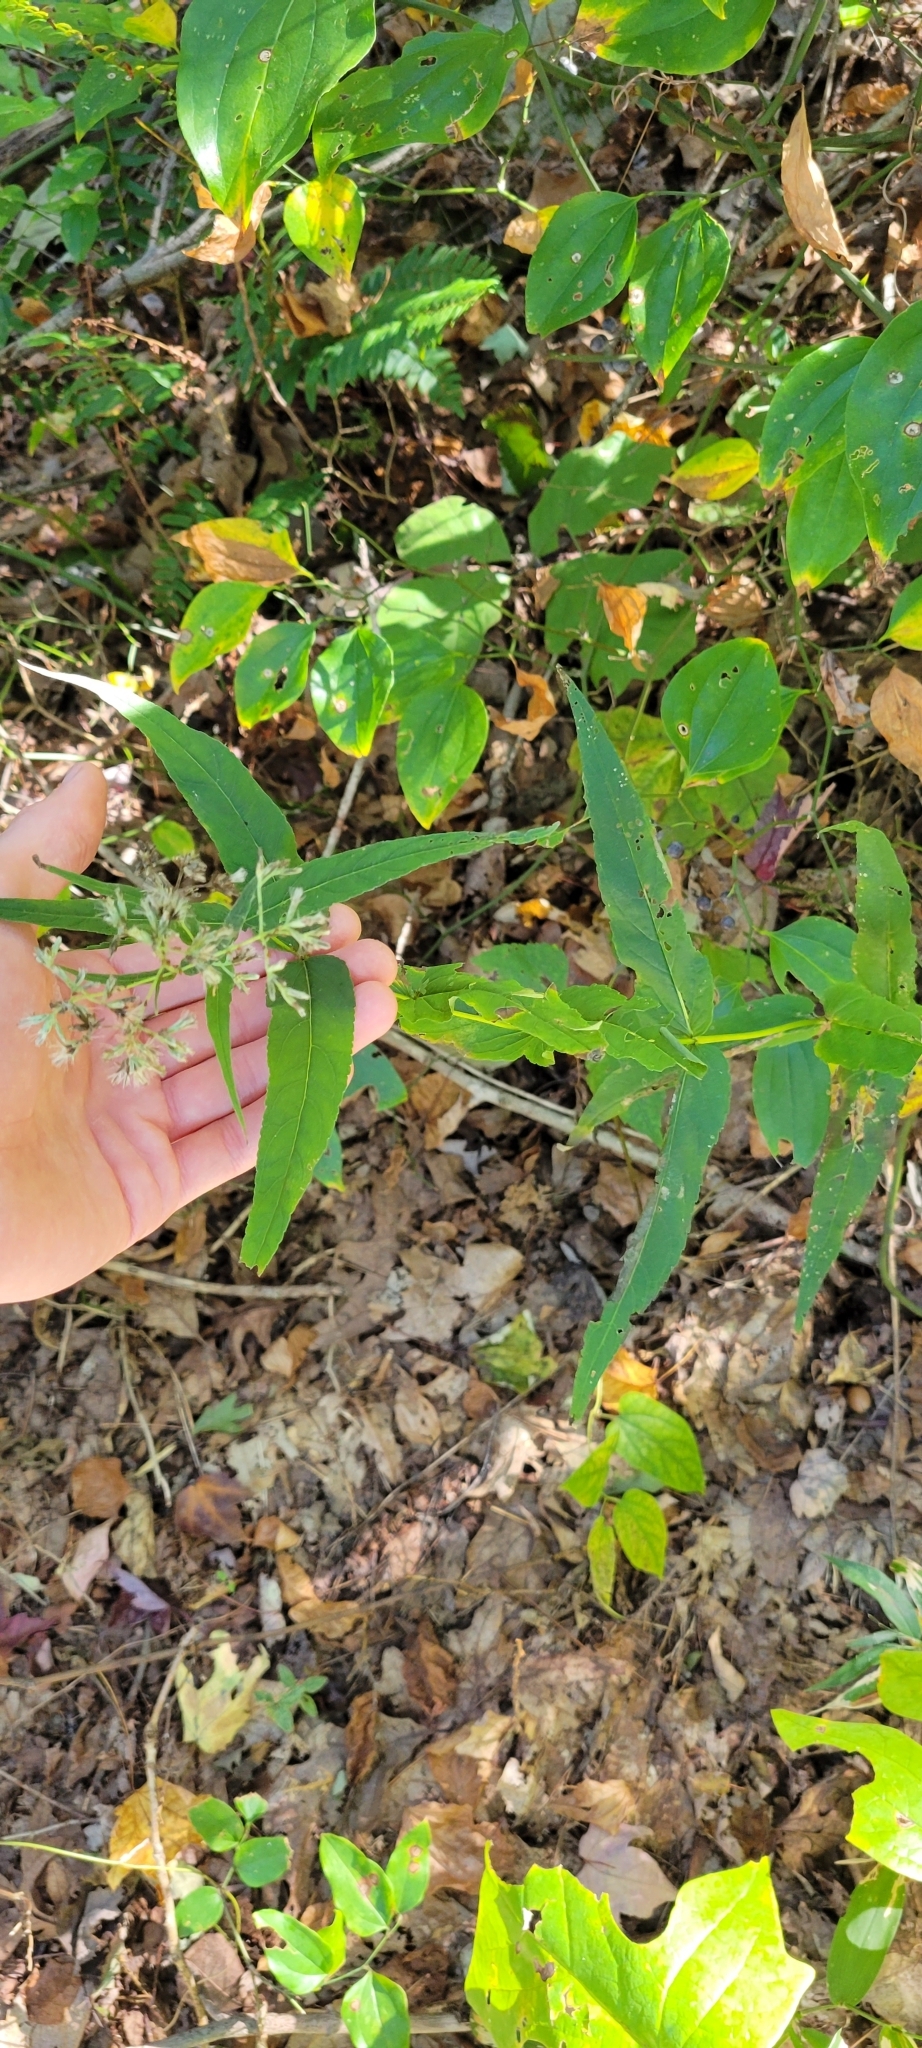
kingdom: Plantae
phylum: Tracheophyta
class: Magnoliopsida
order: Asterales
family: Asteraceae
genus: Eupatorium
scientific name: Eupatorium sessilifolium
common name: Upland boneset
